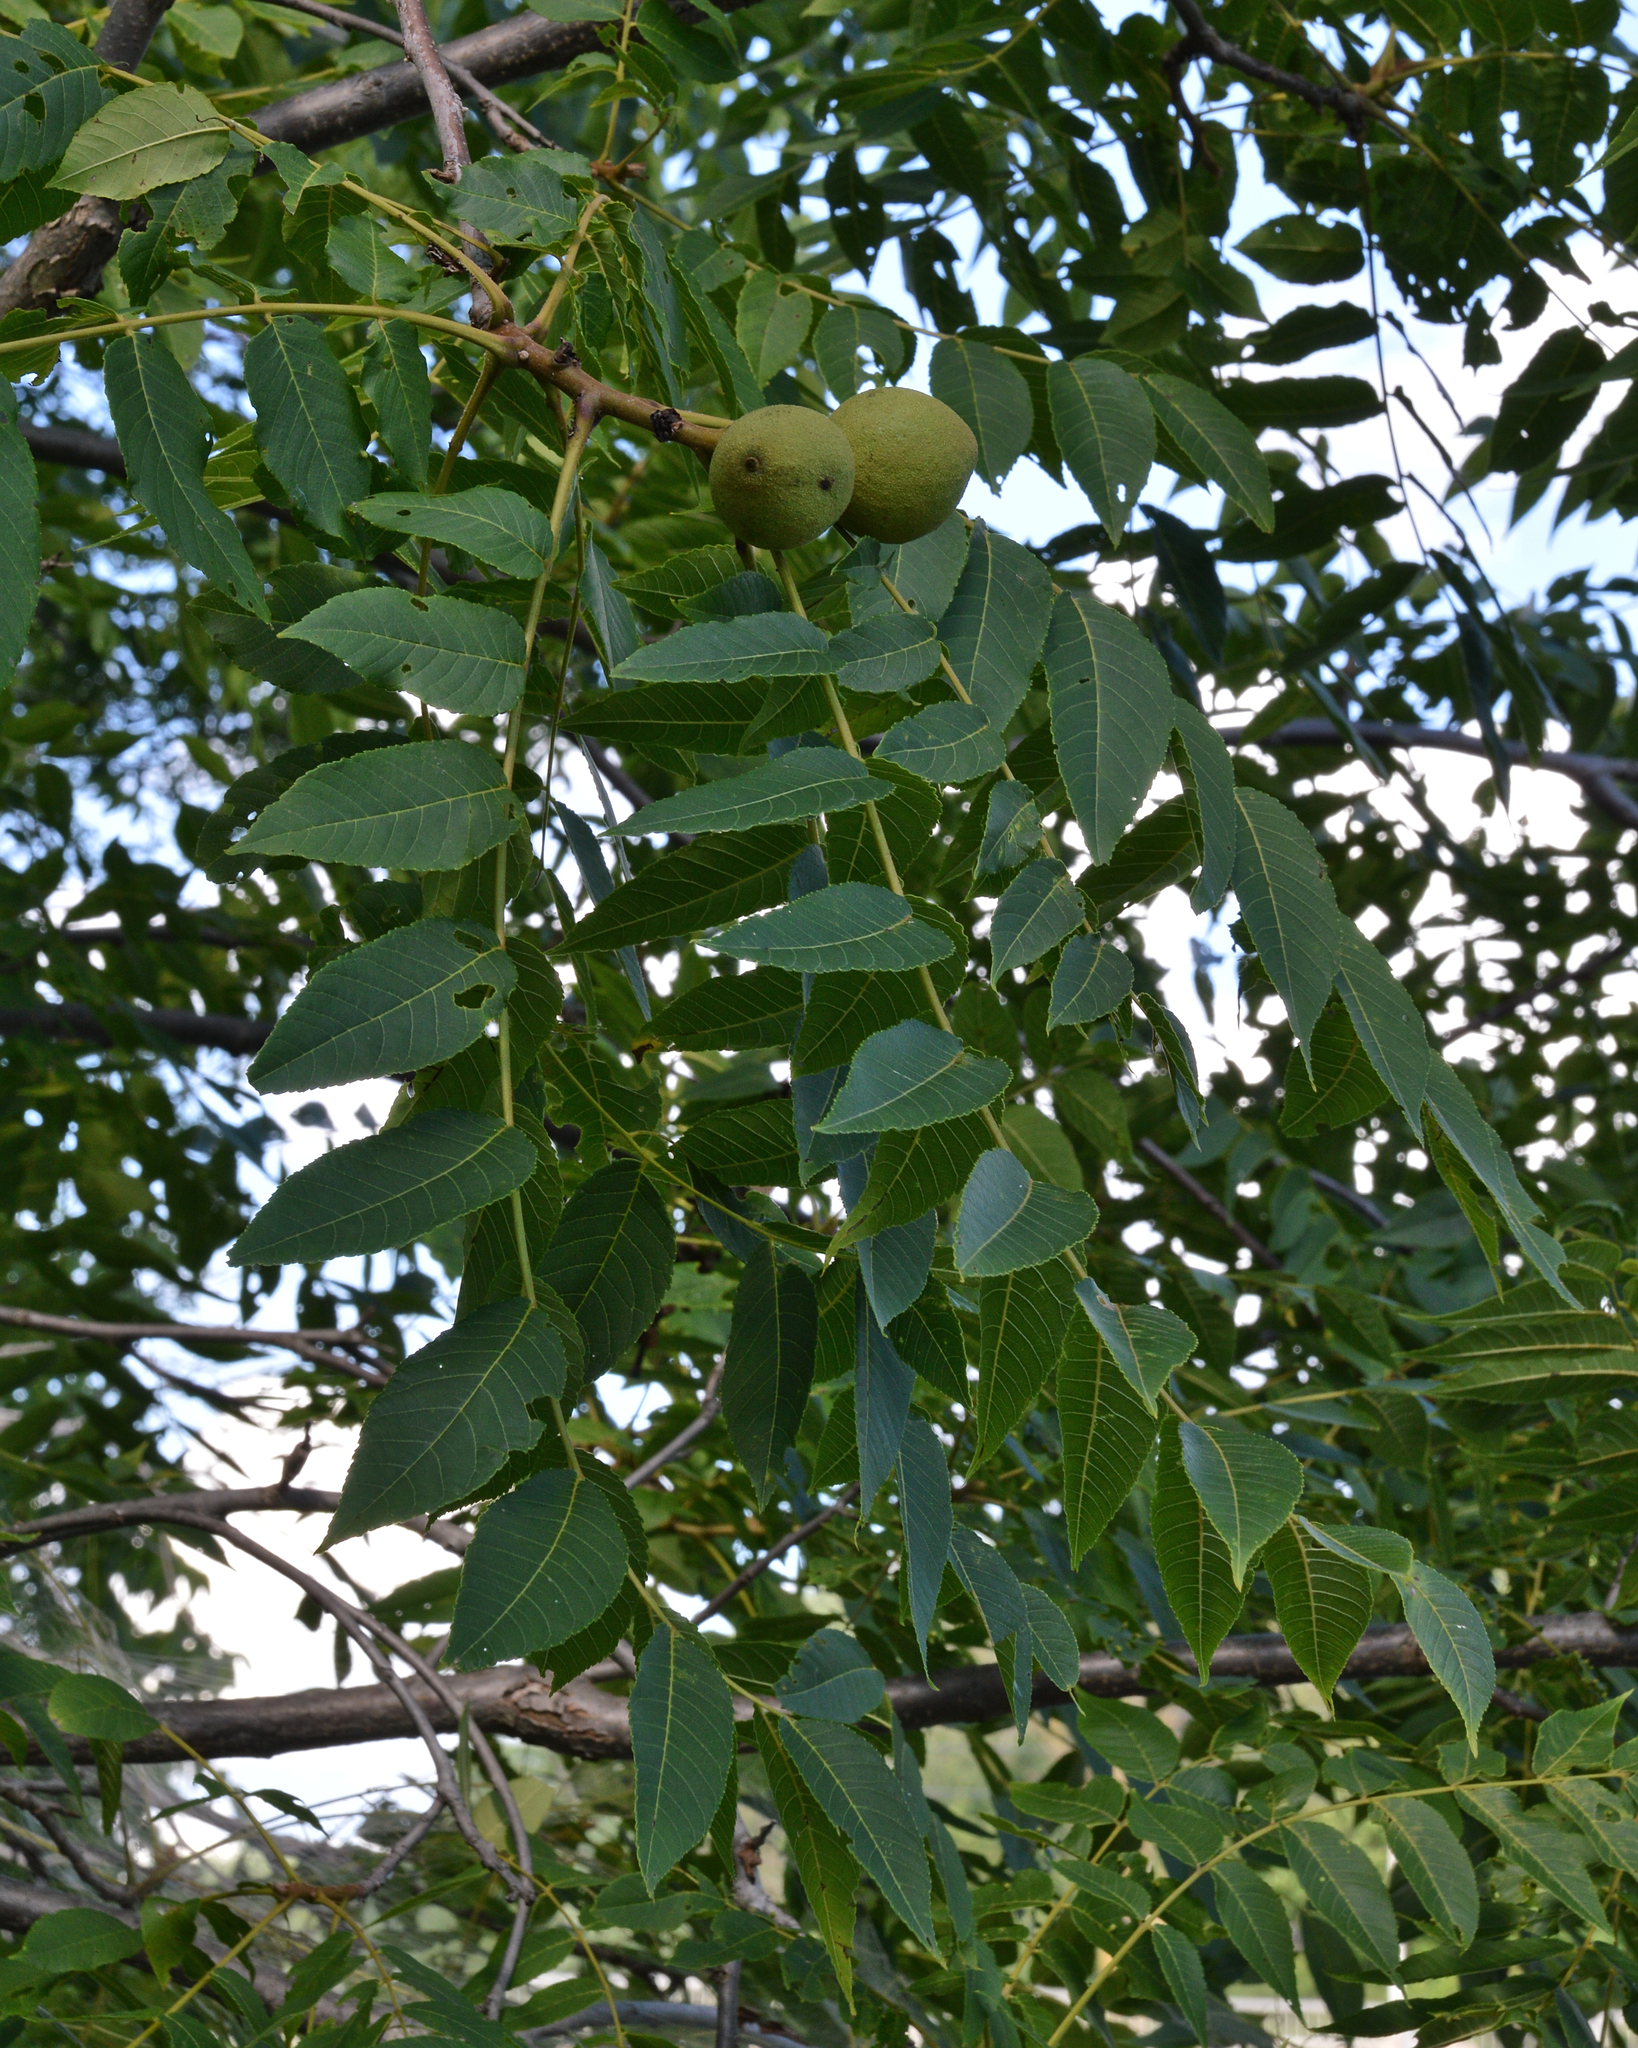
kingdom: Plantae
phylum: Tracheophyta
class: Magnoliopsida
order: Fagales
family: Juglandaceae
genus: Juglans
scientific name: Juglans nigra
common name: Black walnut
